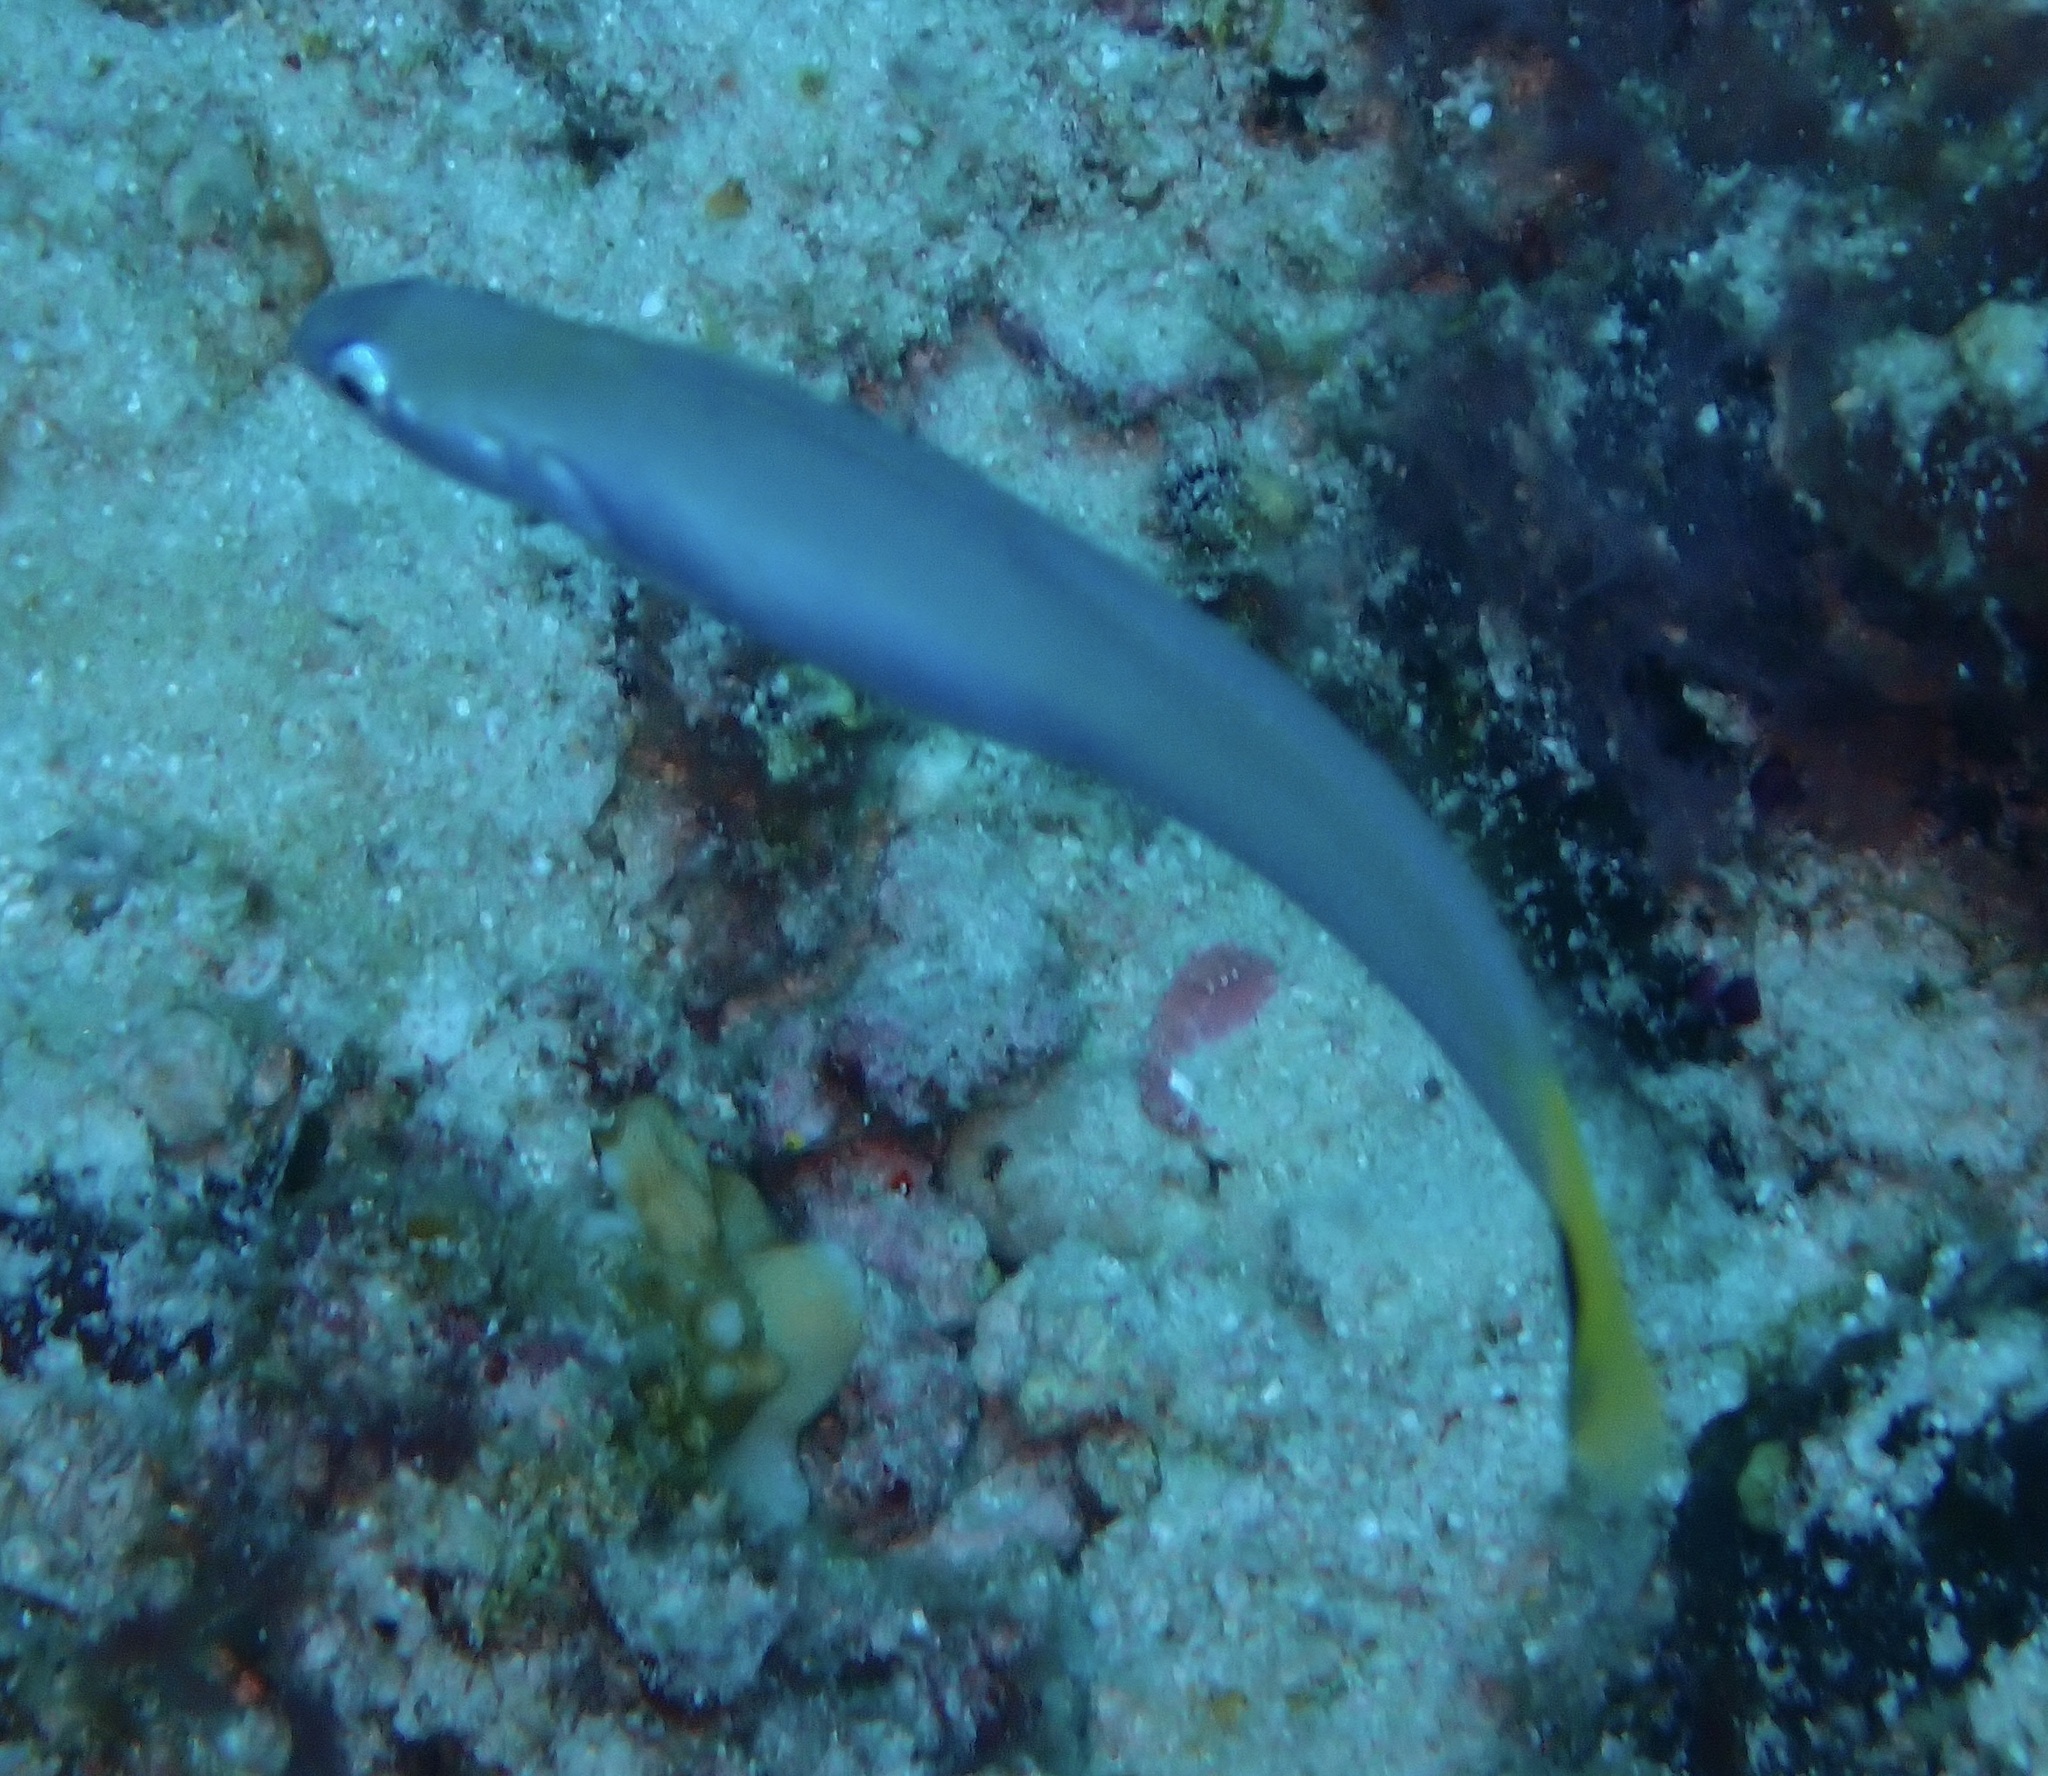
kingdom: Animalia
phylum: Chordata
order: Perciformes
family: Microdesmidae
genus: Ptereleotris
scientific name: Ptereleotris heteroptera
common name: Blacktail goby
